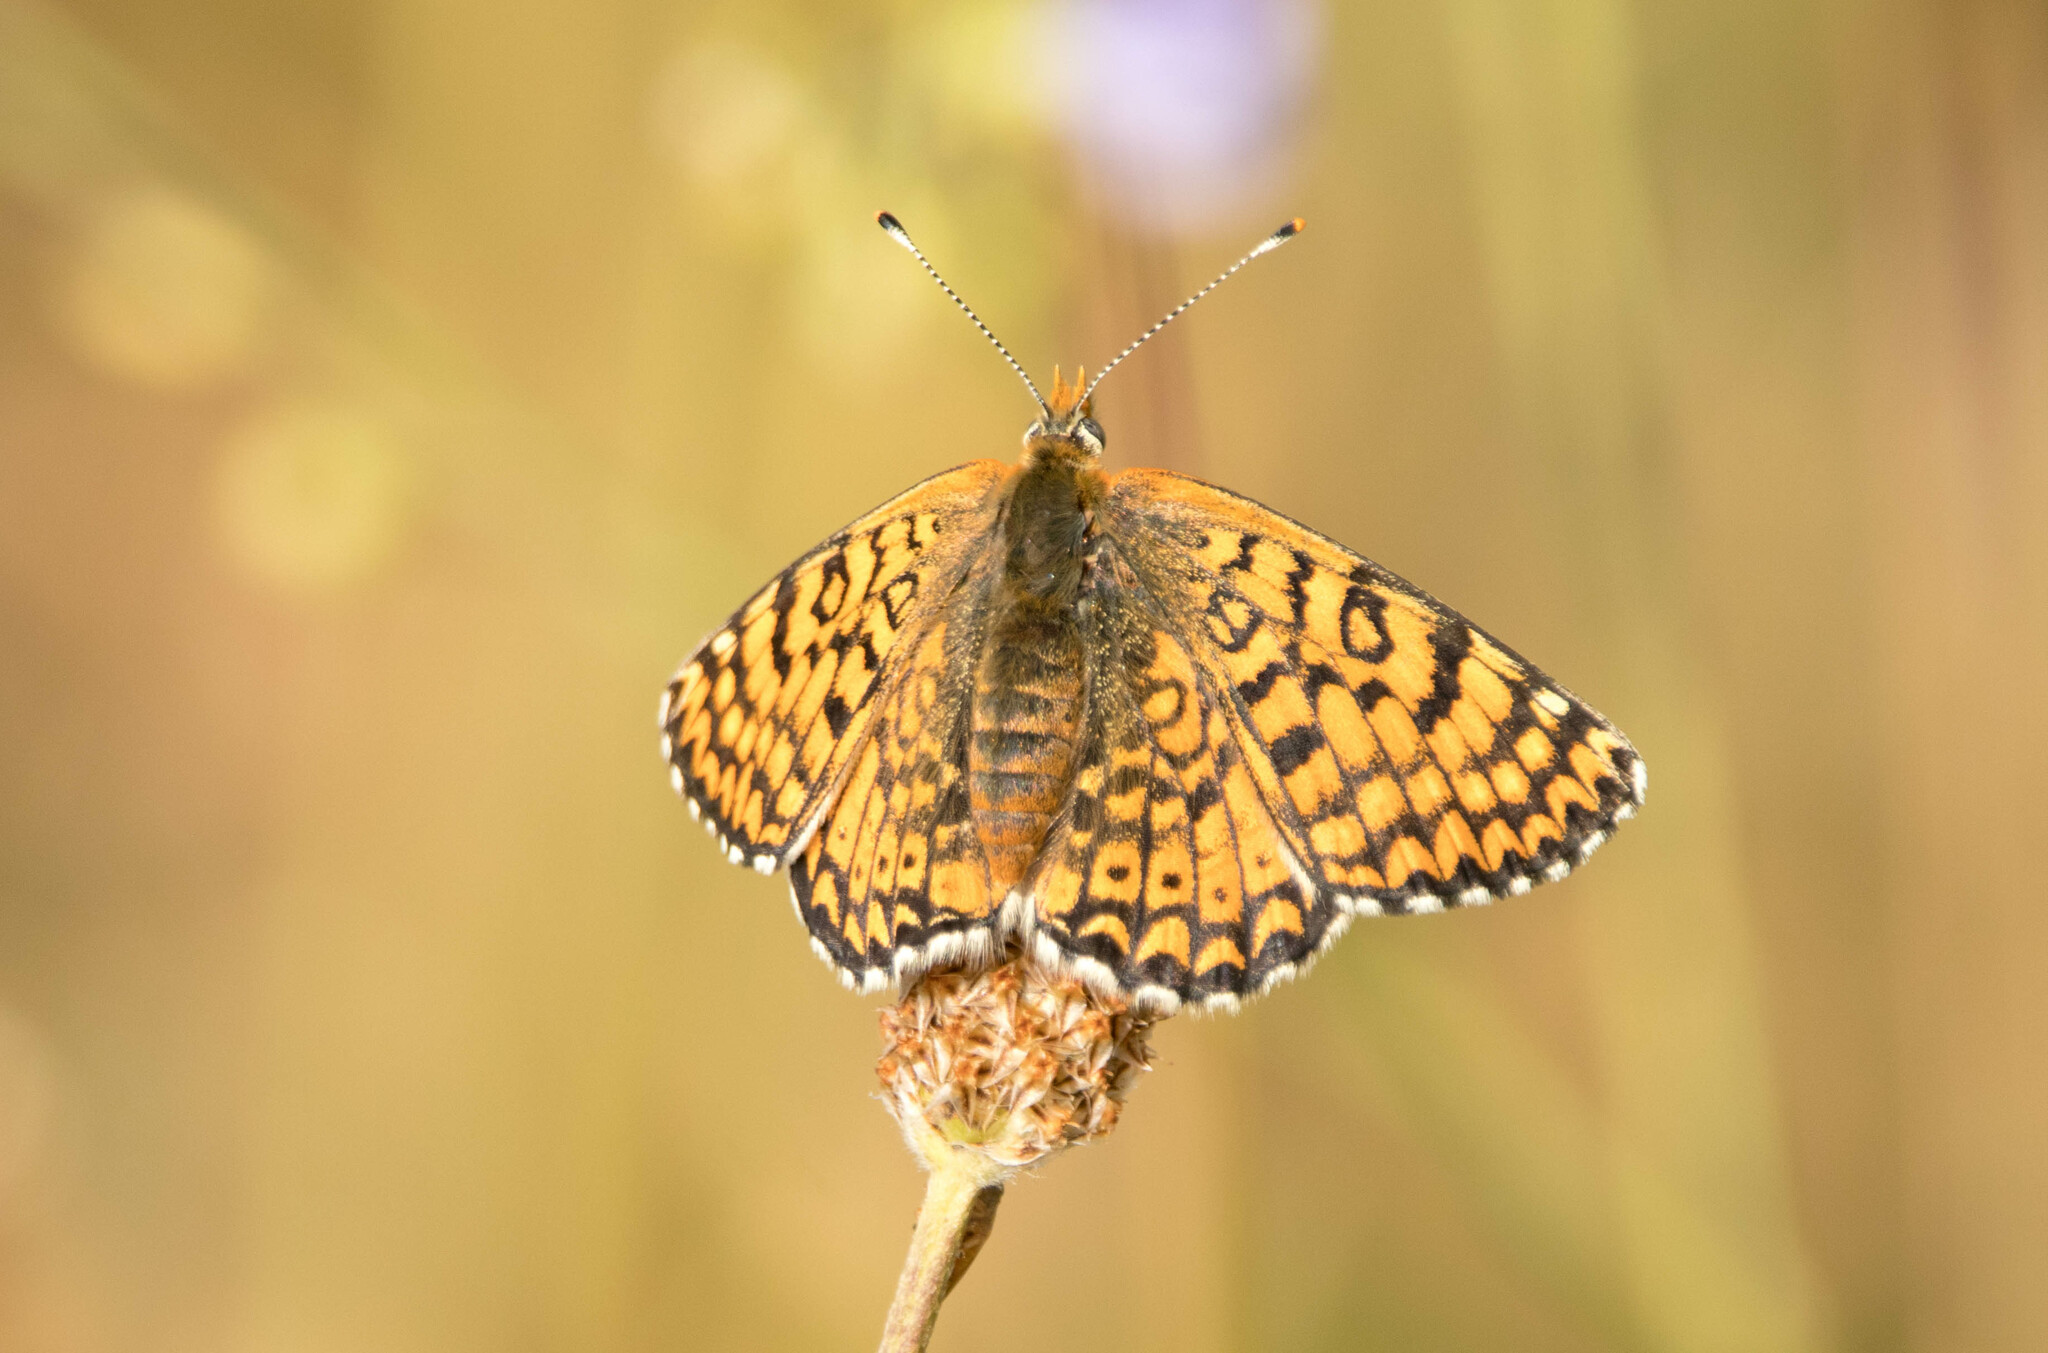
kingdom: Animalia
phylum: Arthropoda
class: Insecta
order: Lepidoptera
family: Nymphalidae
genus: Melitaea
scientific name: Melitaea cinxia
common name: Glanville fritillary
